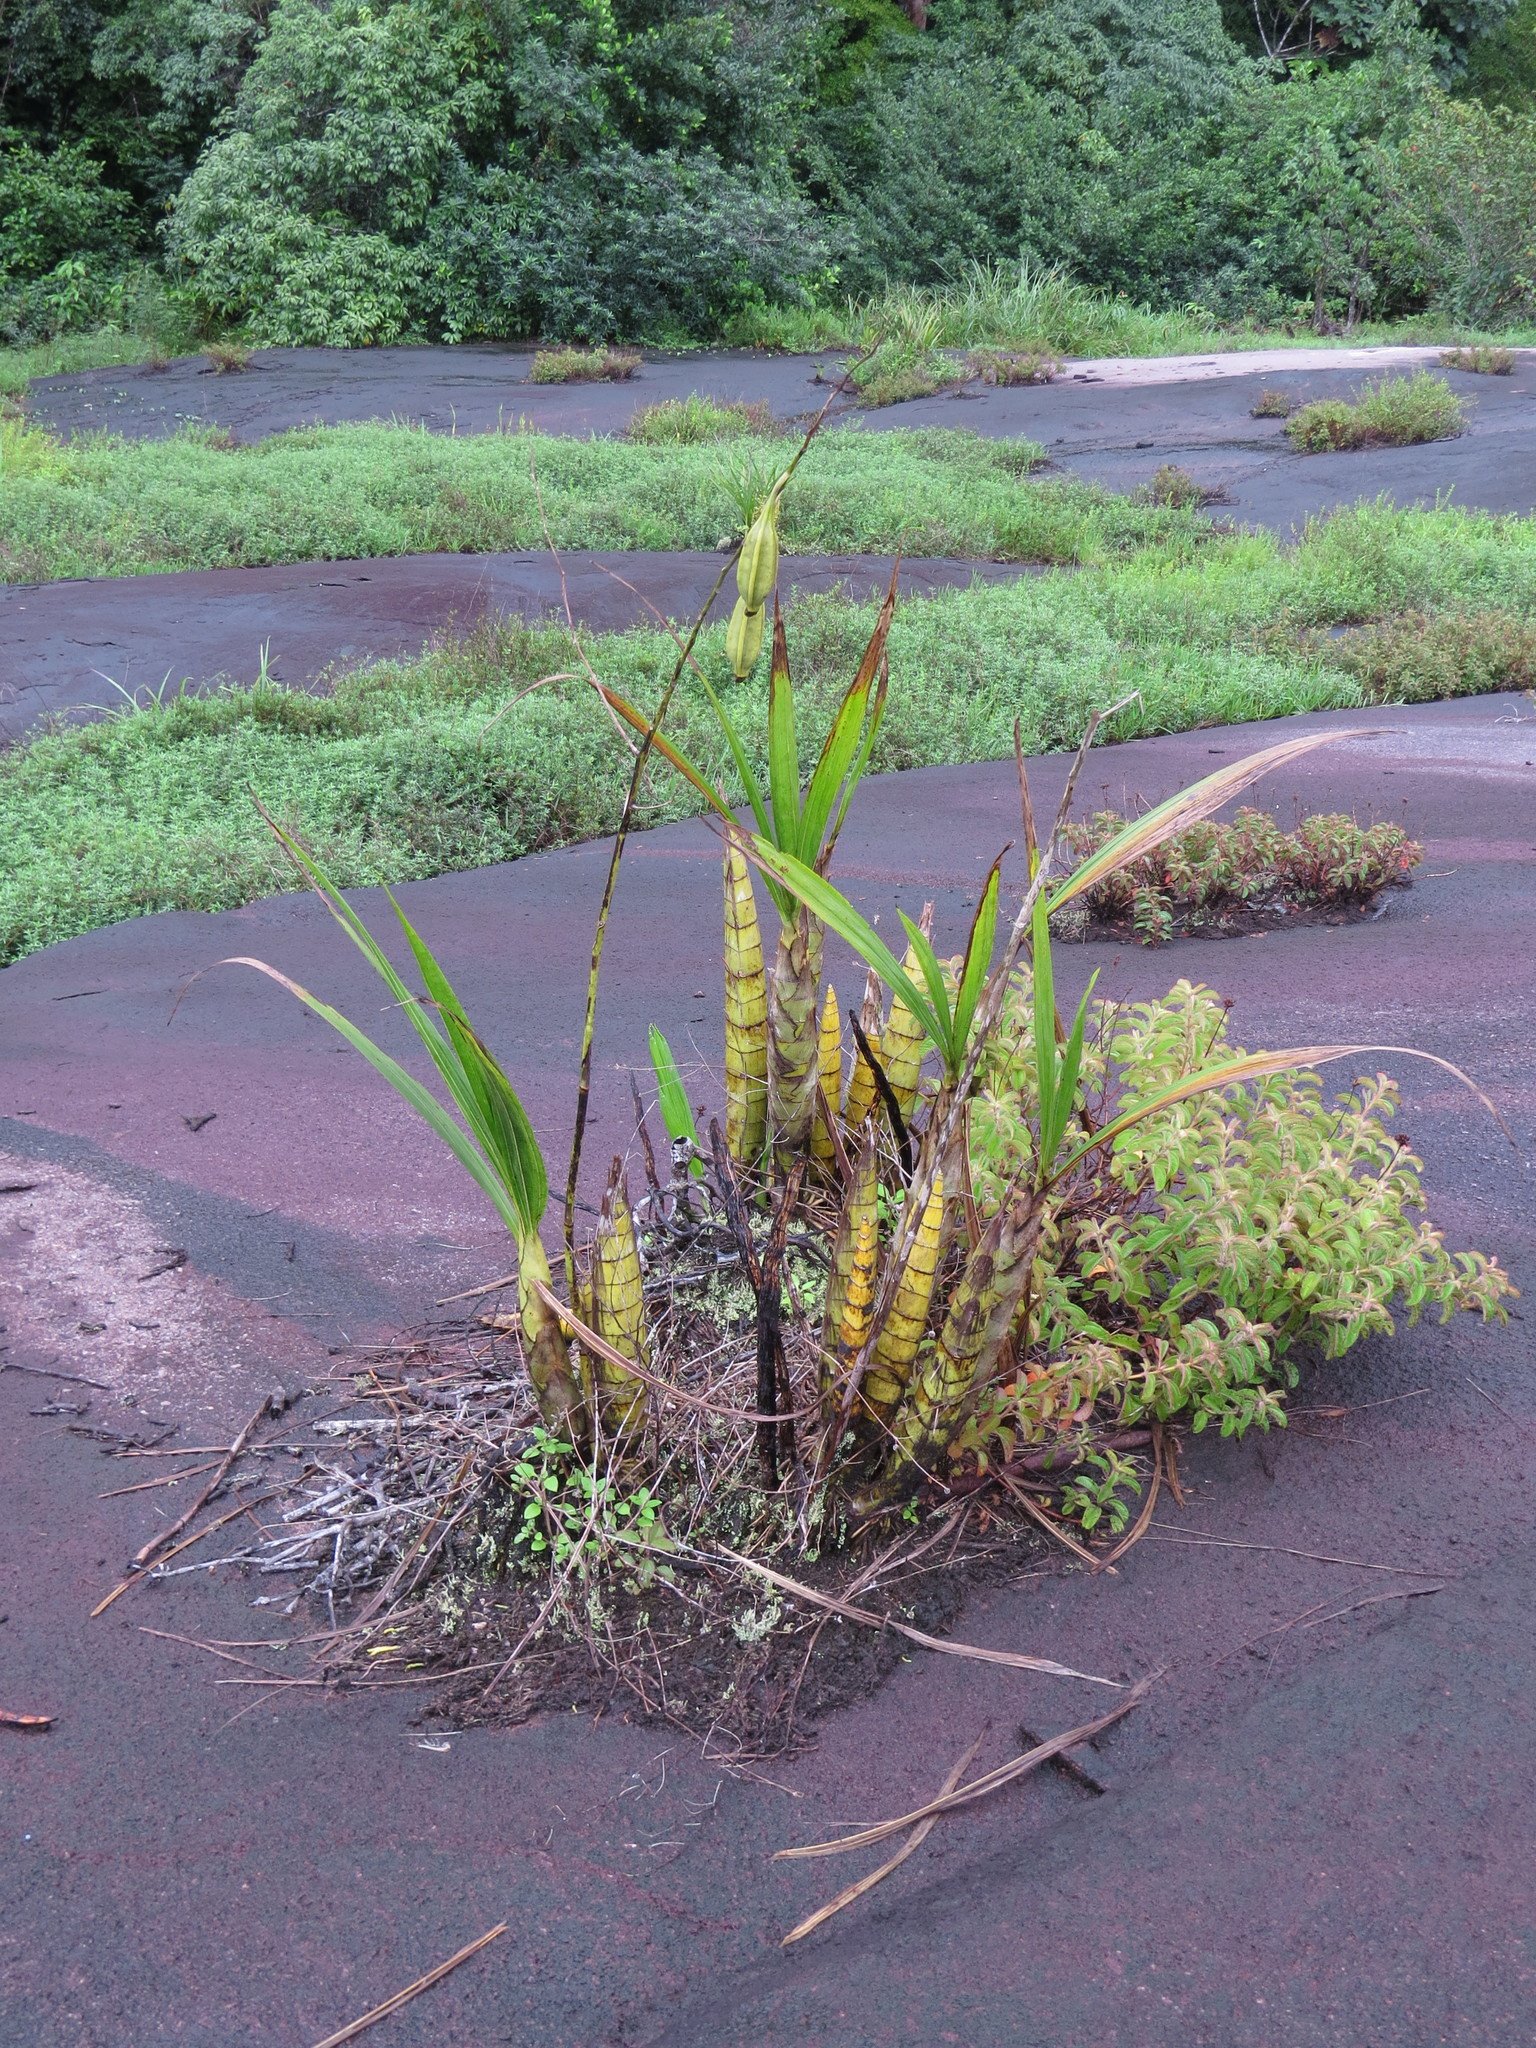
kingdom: Plantae
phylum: Tracheophyta
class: Liliopsida
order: Asparagales
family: Orchidaceae
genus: Cyrtopodium
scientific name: Cyrtopodium andersonii
